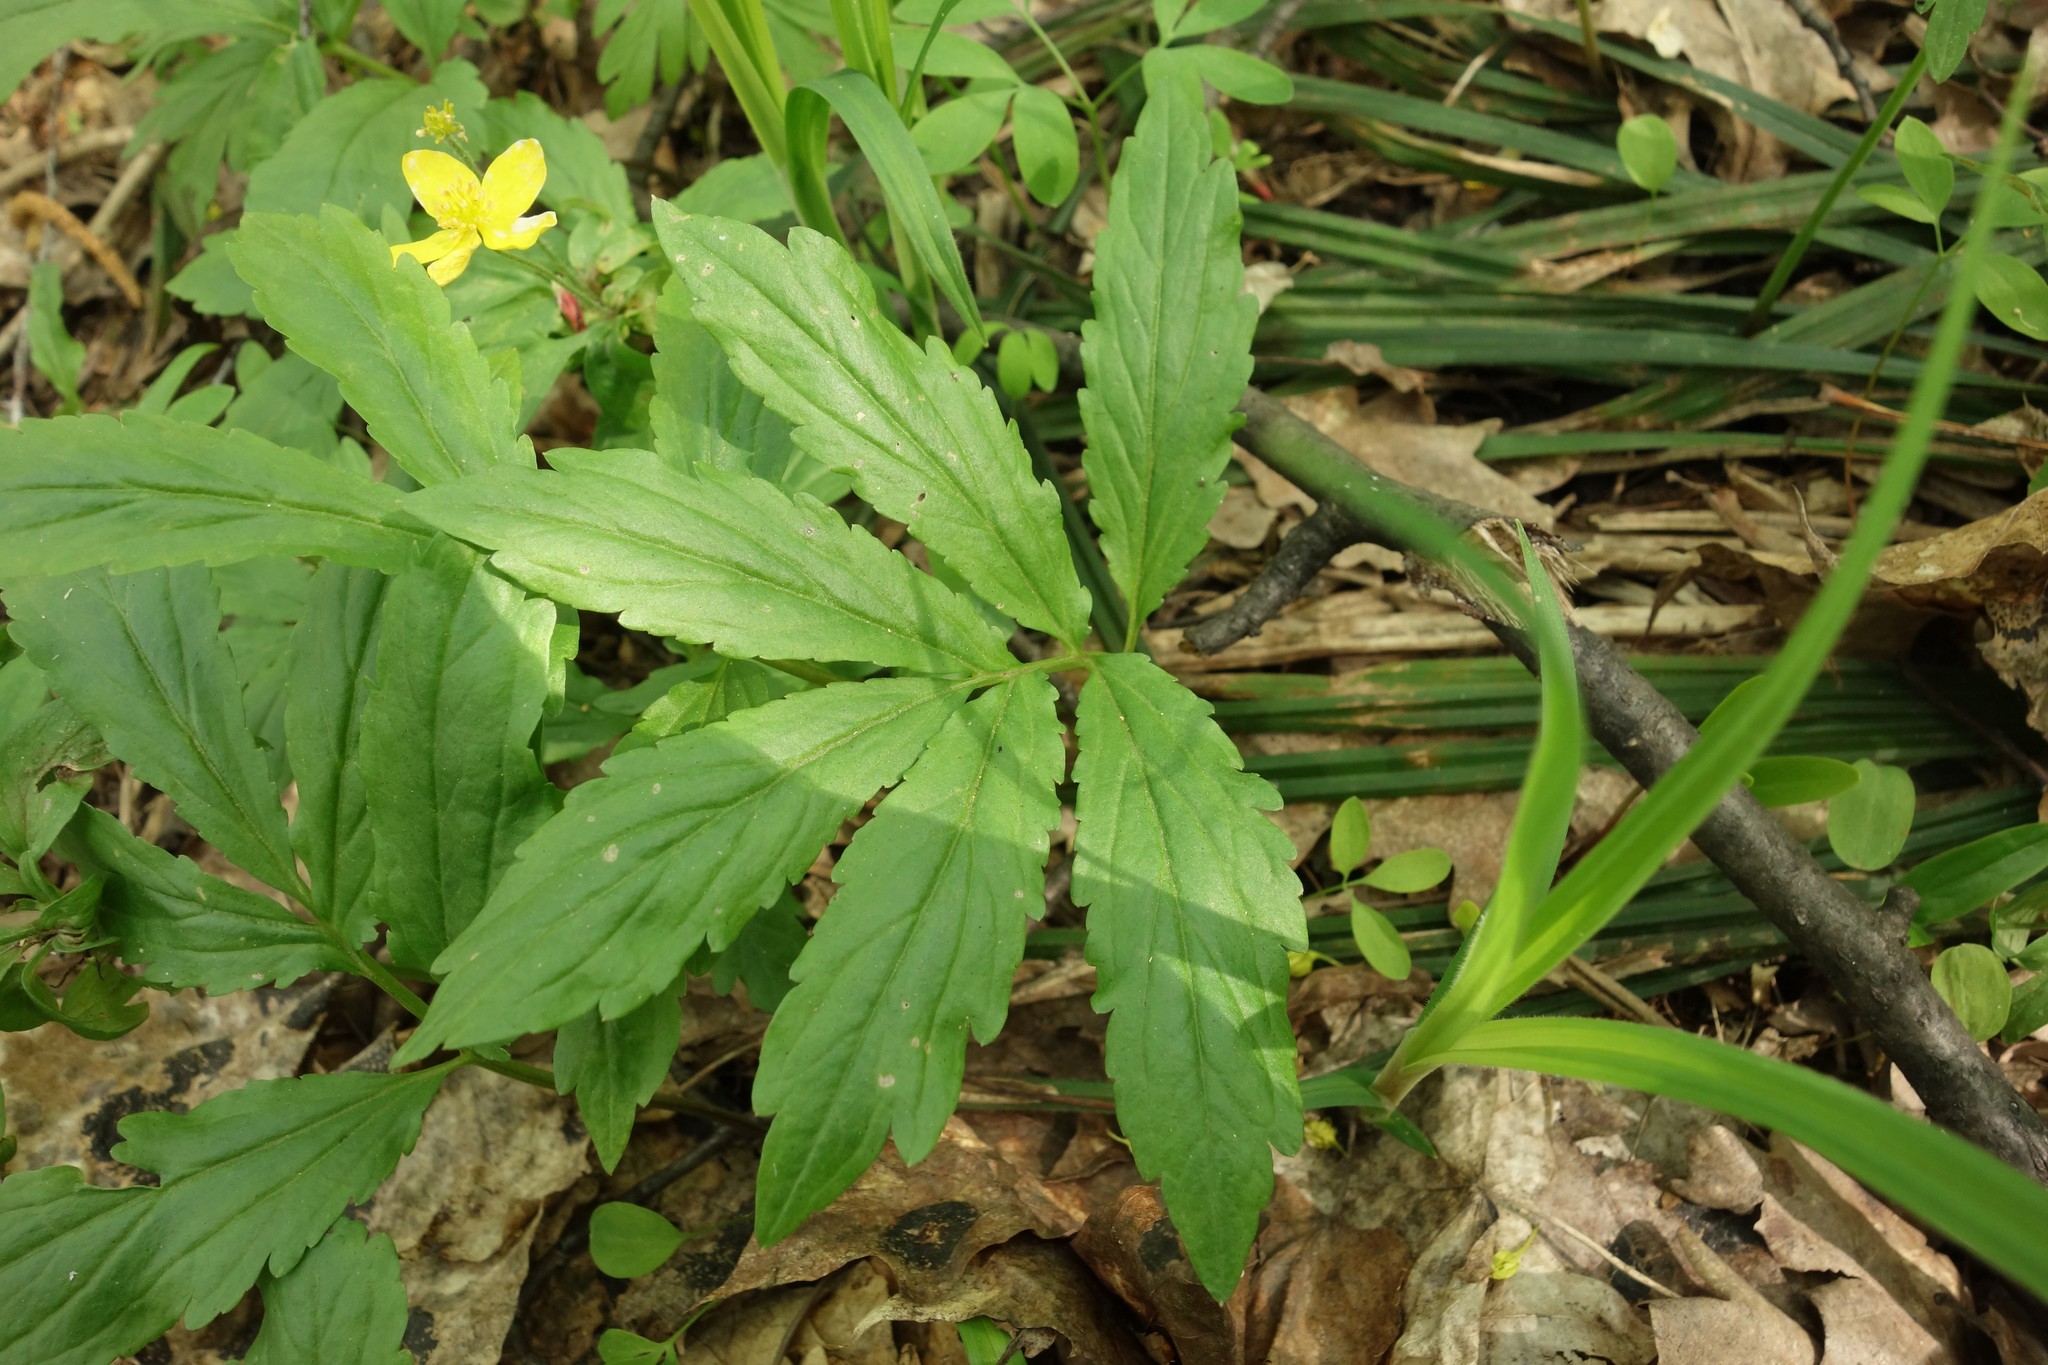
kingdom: Plantae
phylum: Tracheophyta
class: Magnoliopsida
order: Brassicales
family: Brassicaceae
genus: Cardamine
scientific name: Cardamine quinquefolia
